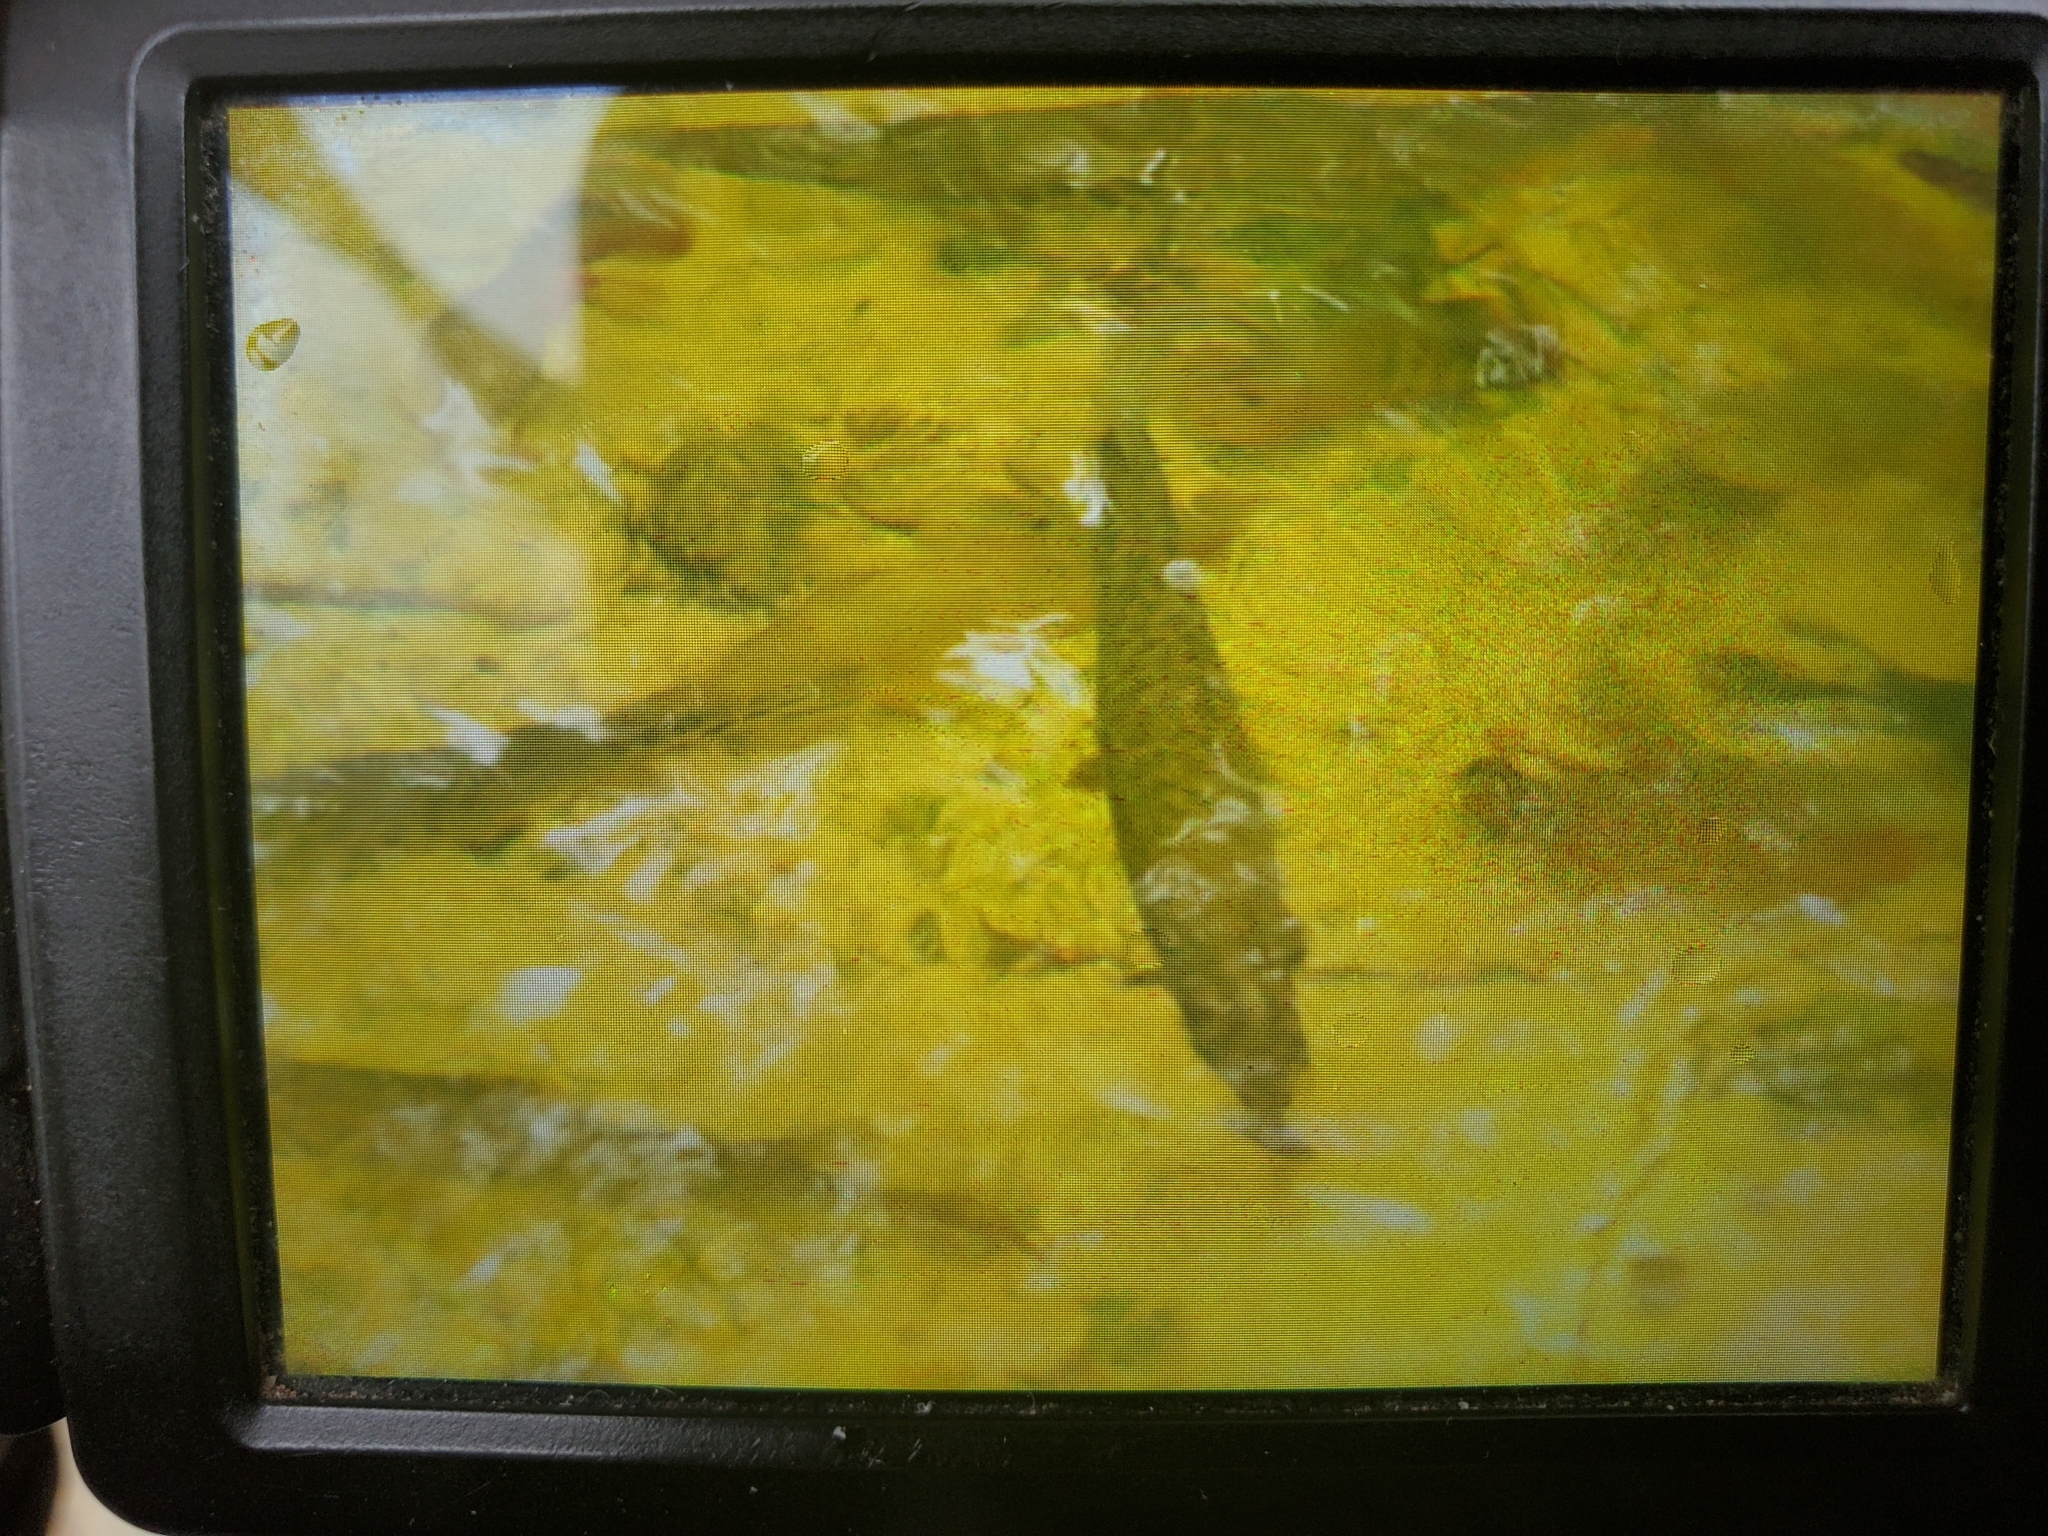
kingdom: Animalia
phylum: Chordata
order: Lepisosteiformes
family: Lepisosteidae
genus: Lepisosteus
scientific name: Lepisosteus platyrhincus
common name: Florida gar
